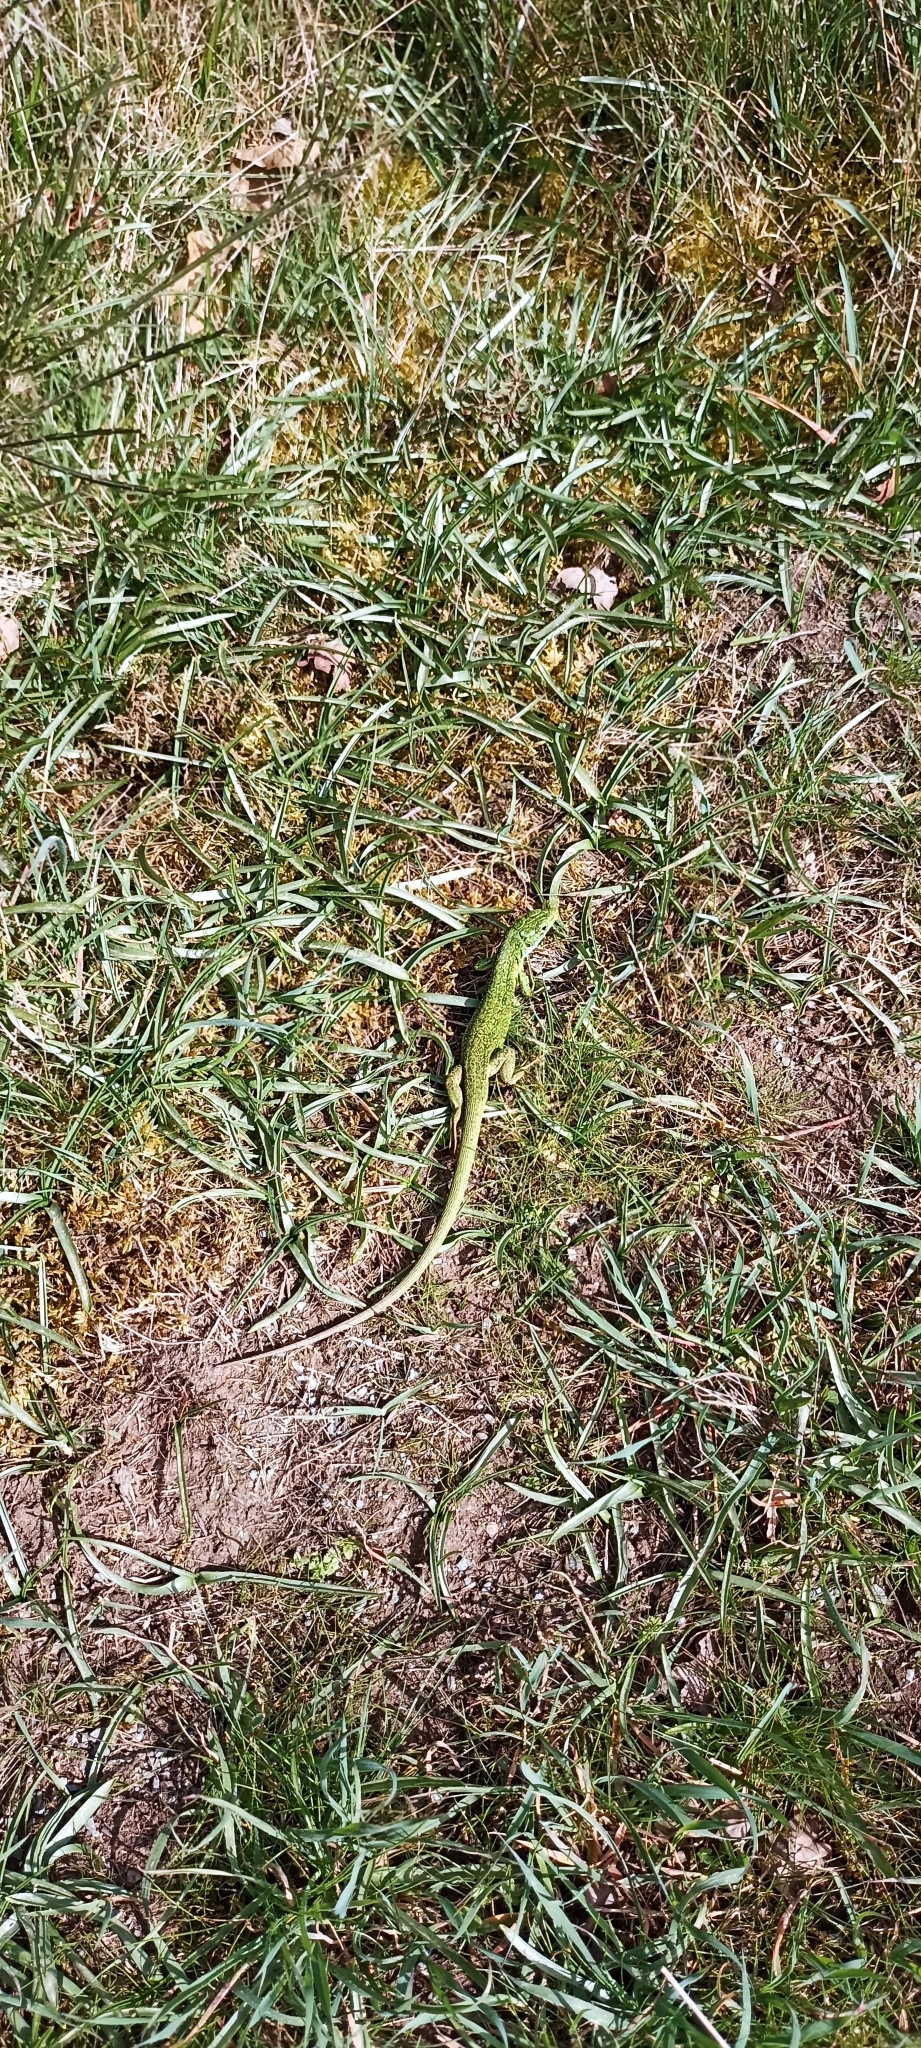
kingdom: Animalia
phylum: Chordata
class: Squamata
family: Lacertidae
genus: Lacerta
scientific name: Lacerta bilineata
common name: Western green lizard
